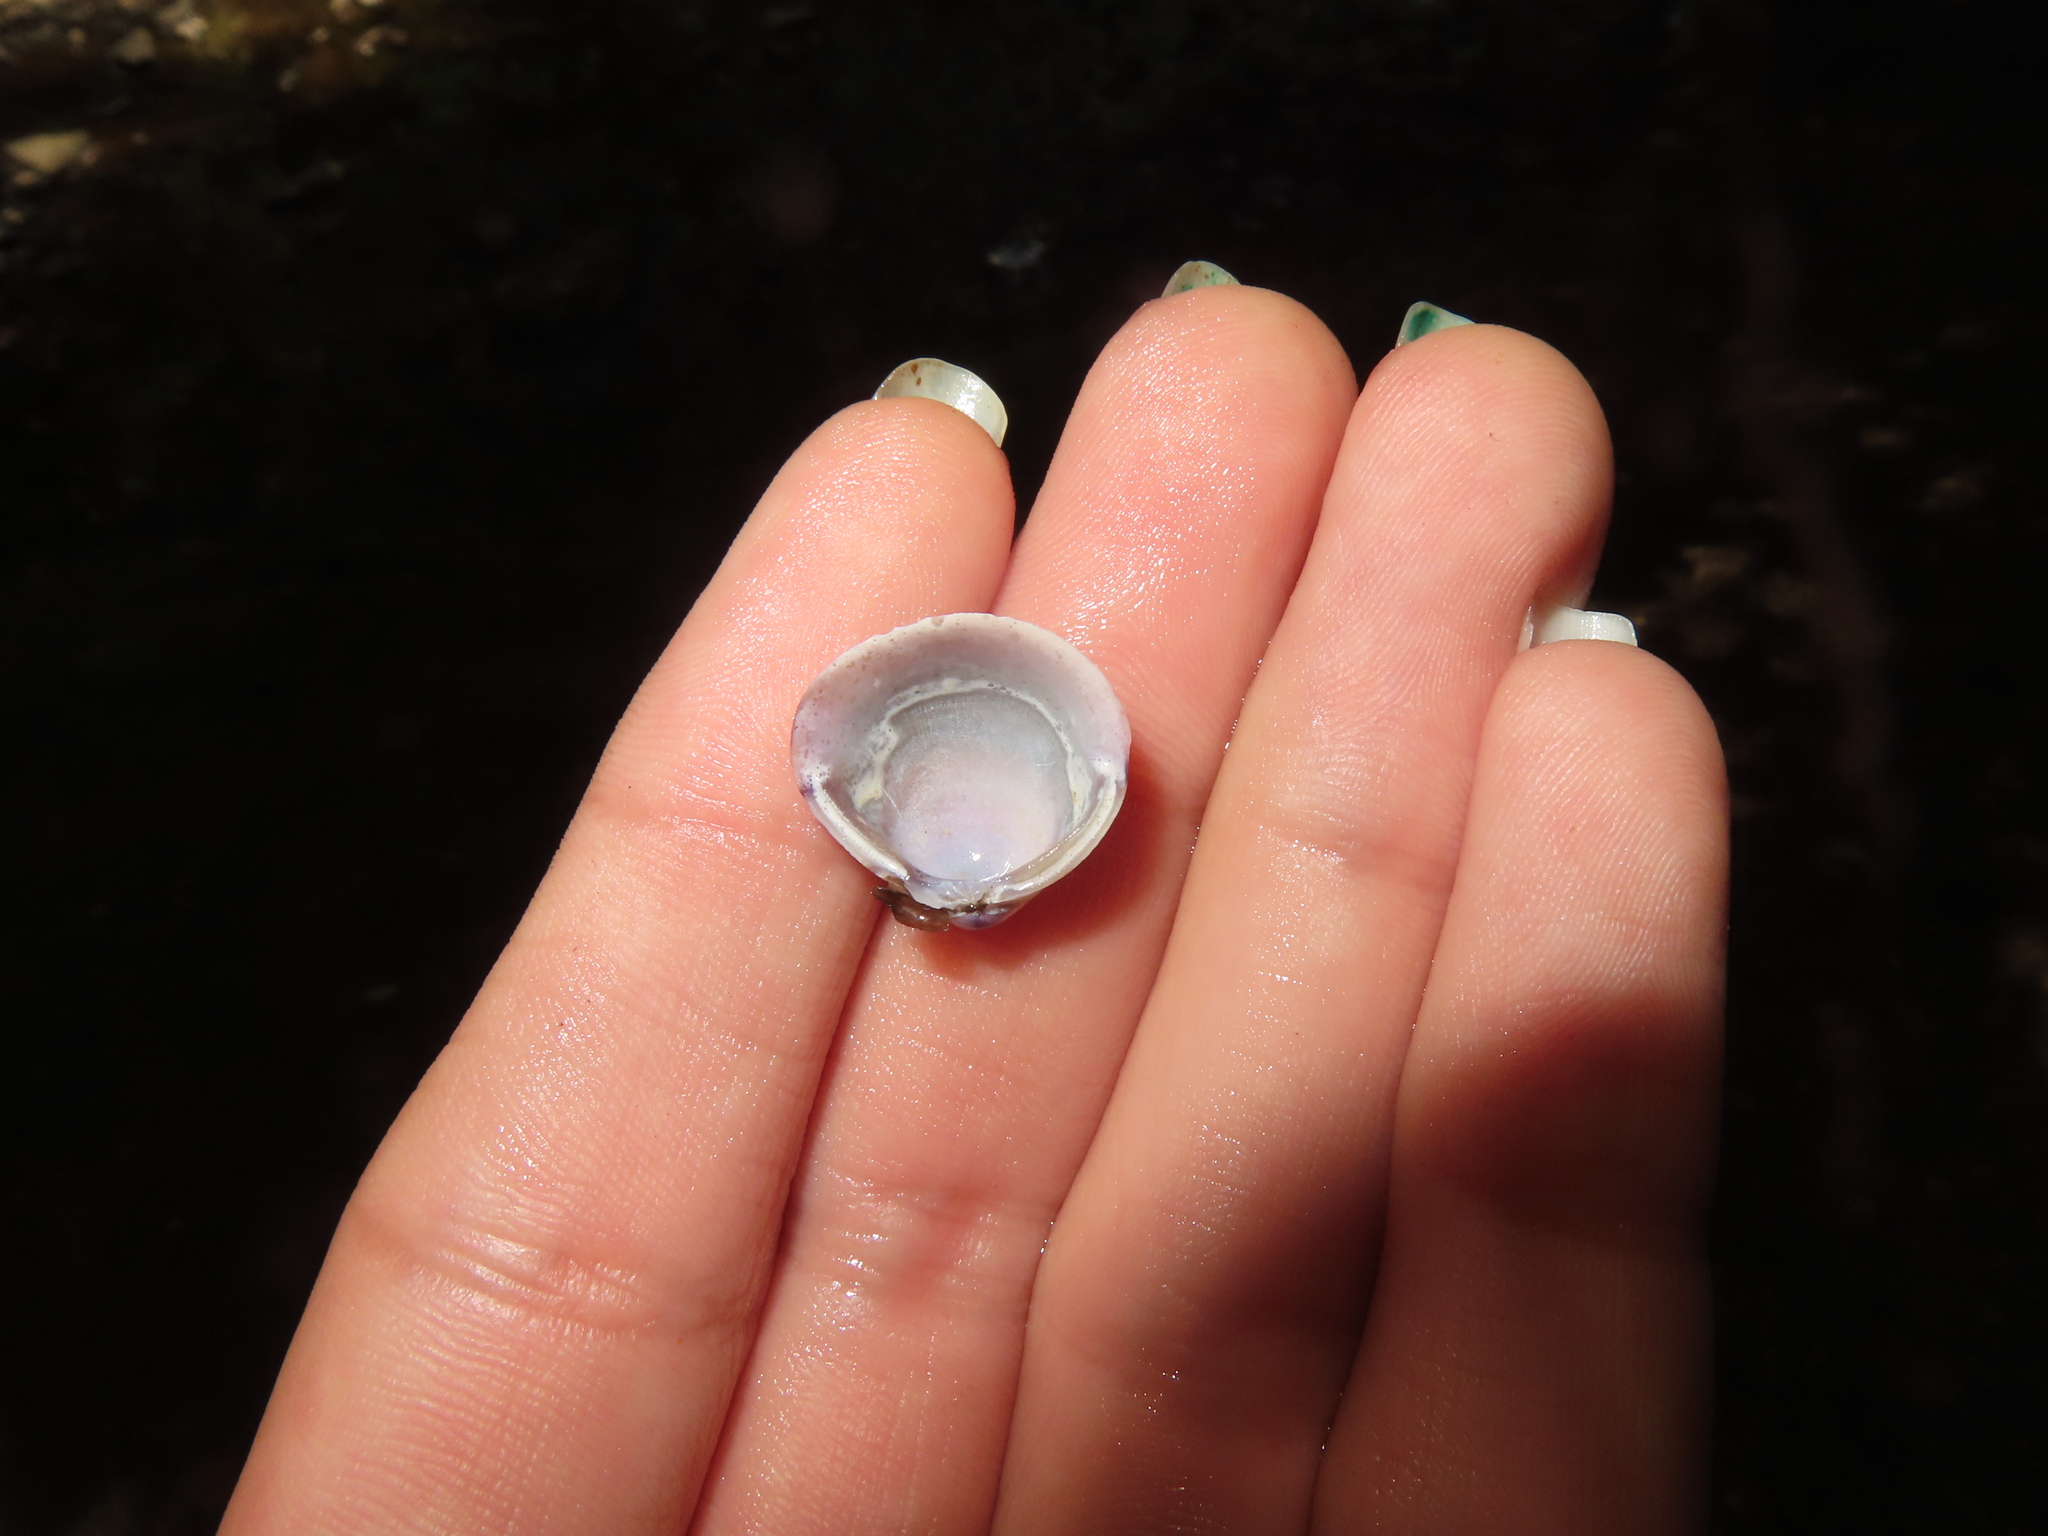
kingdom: Animalia
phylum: Mollusca
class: Bivalvia
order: Venerida
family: Cyrenidae
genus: Corbicula
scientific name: Corbicula fluminea
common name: Asian clam
